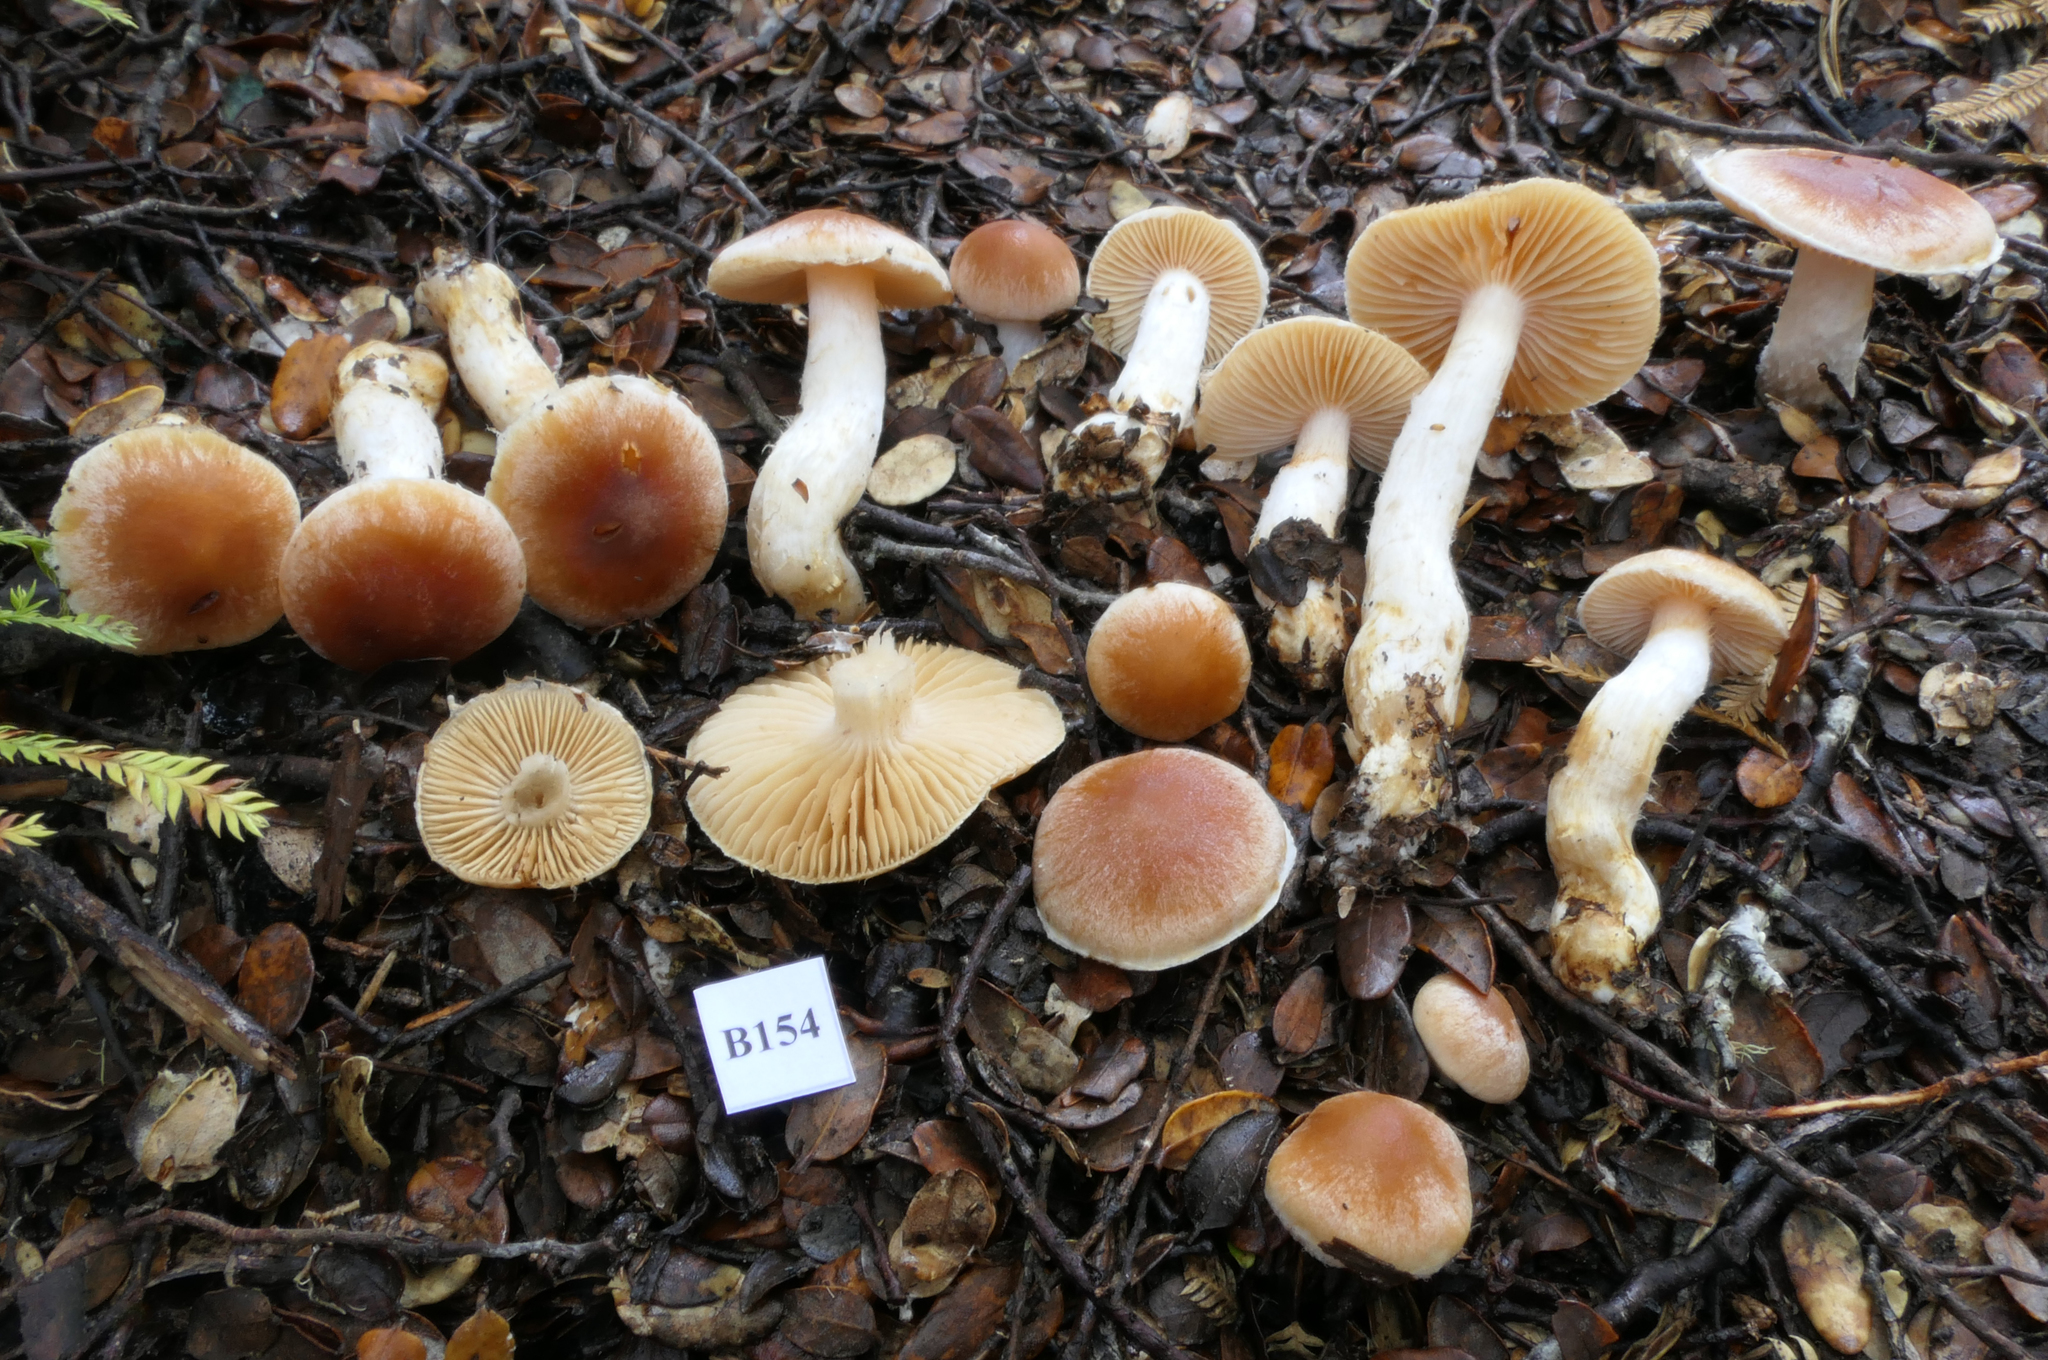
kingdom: Fungi
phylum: Basidiomycota
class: Agaricomycetes
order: Agaricales
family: Cortinariaceae
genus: Cortinarius
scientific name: Cortinarius peraureus
